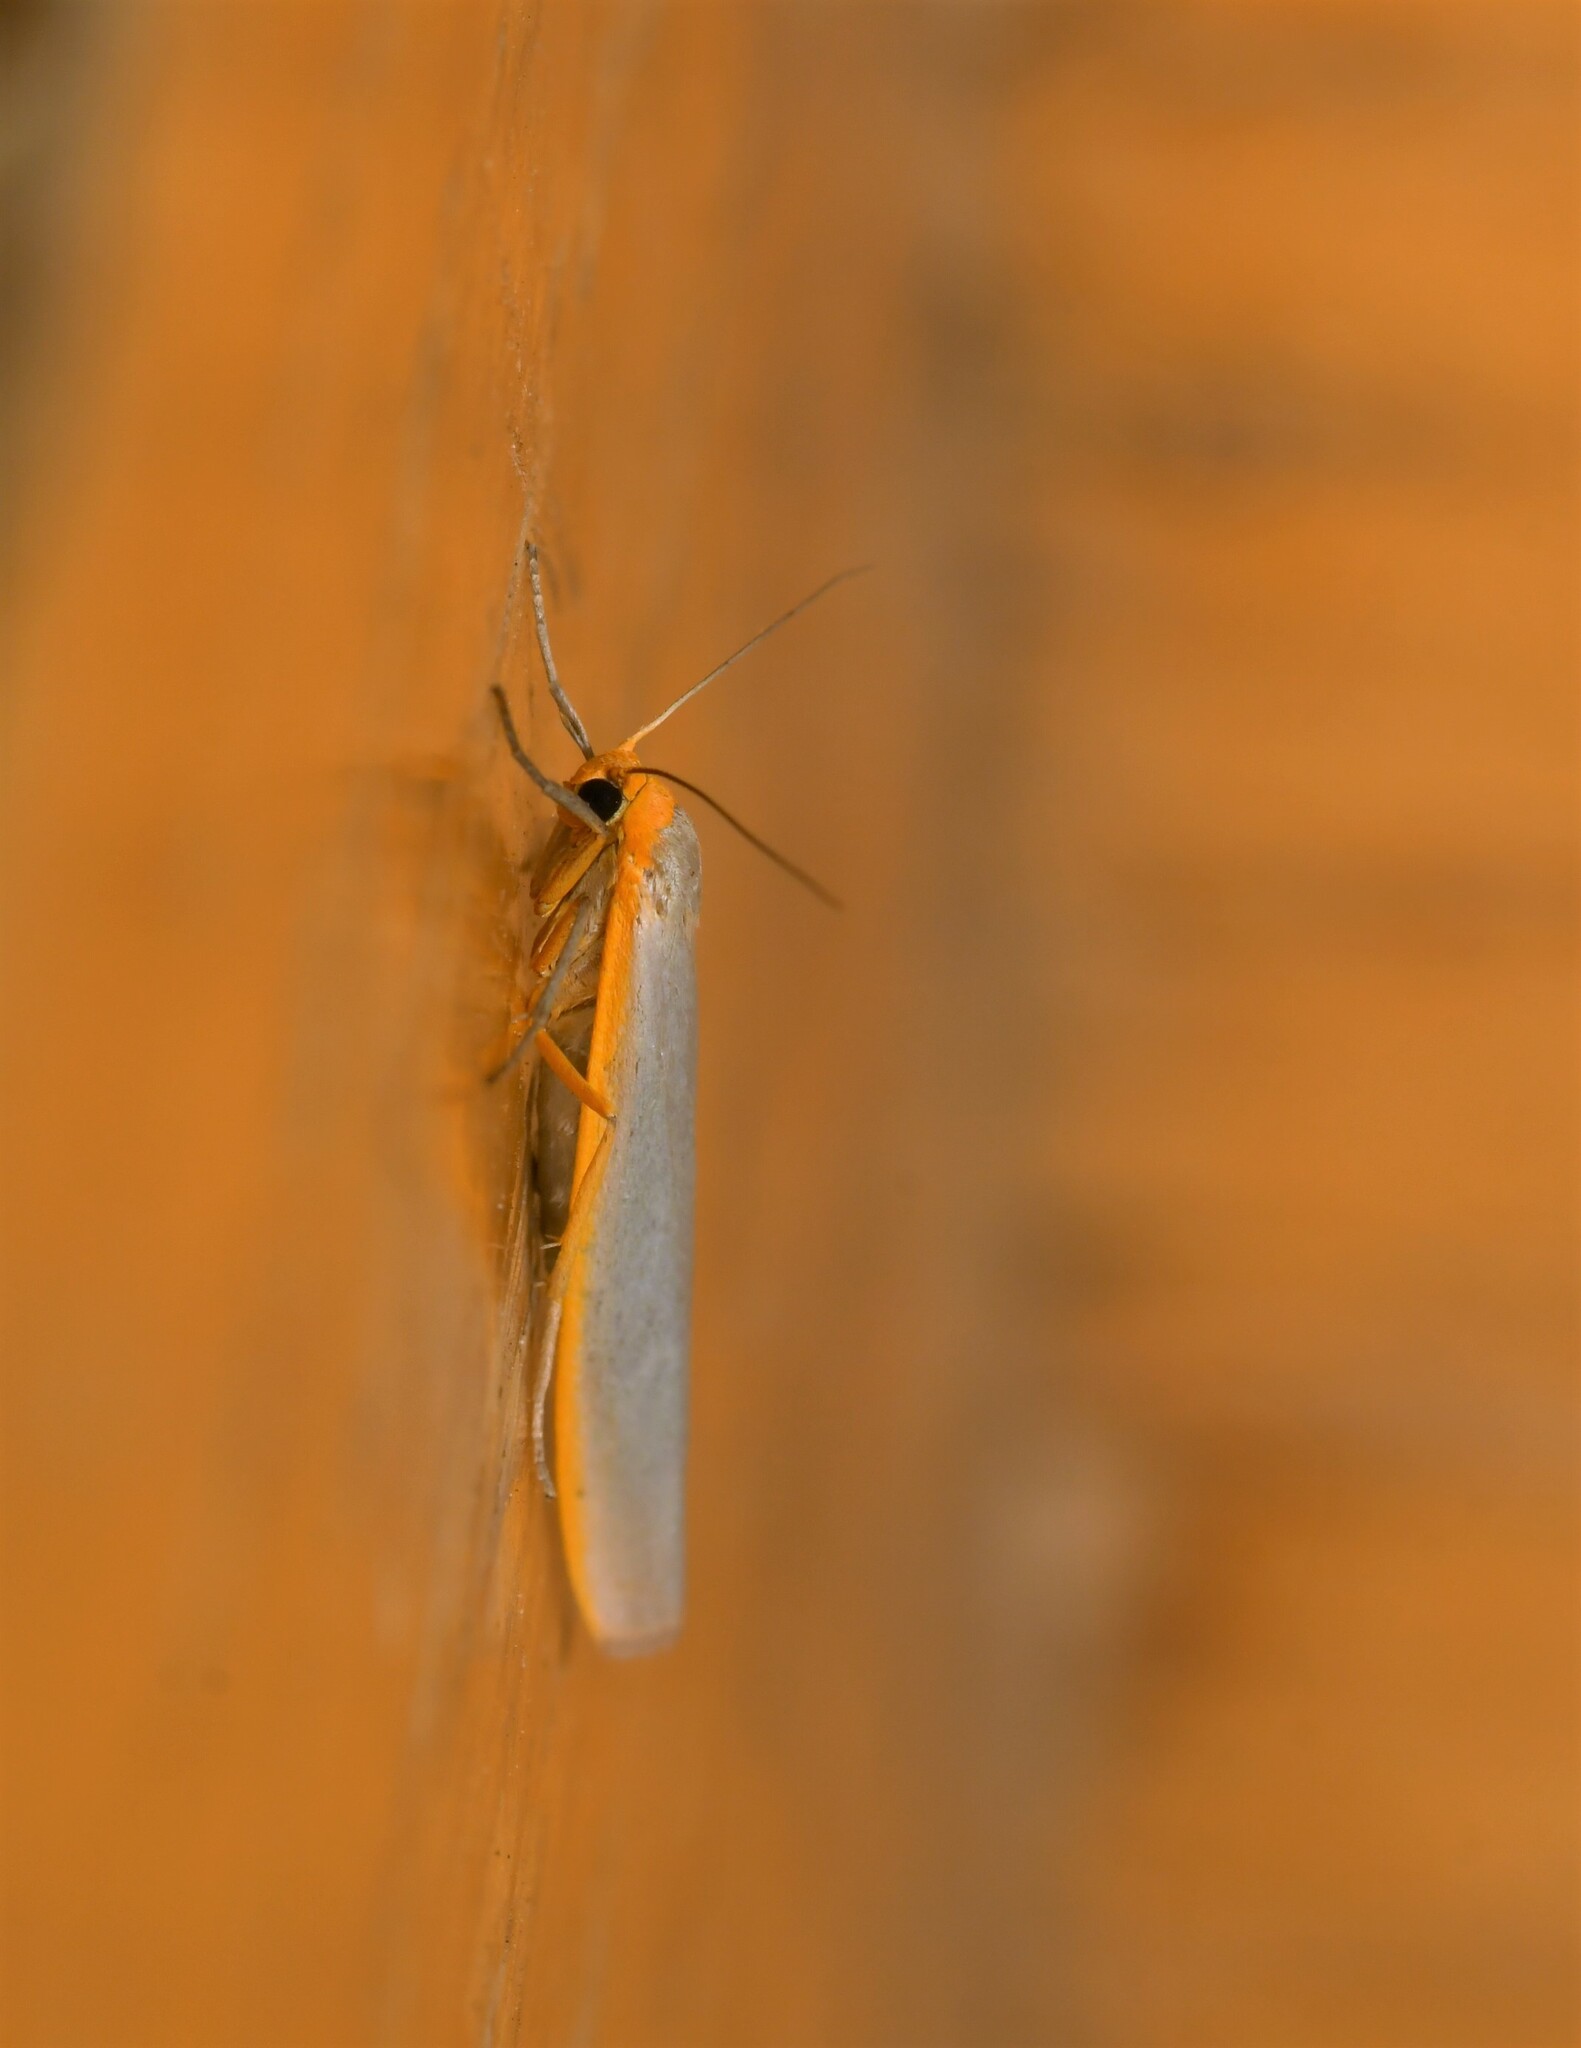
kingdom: Animalia
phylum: Arthropoda
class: Insecta
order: Lepidoptera
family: Erebidae
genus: Eilema
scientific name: Eilema caniola
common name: Hoary footman
